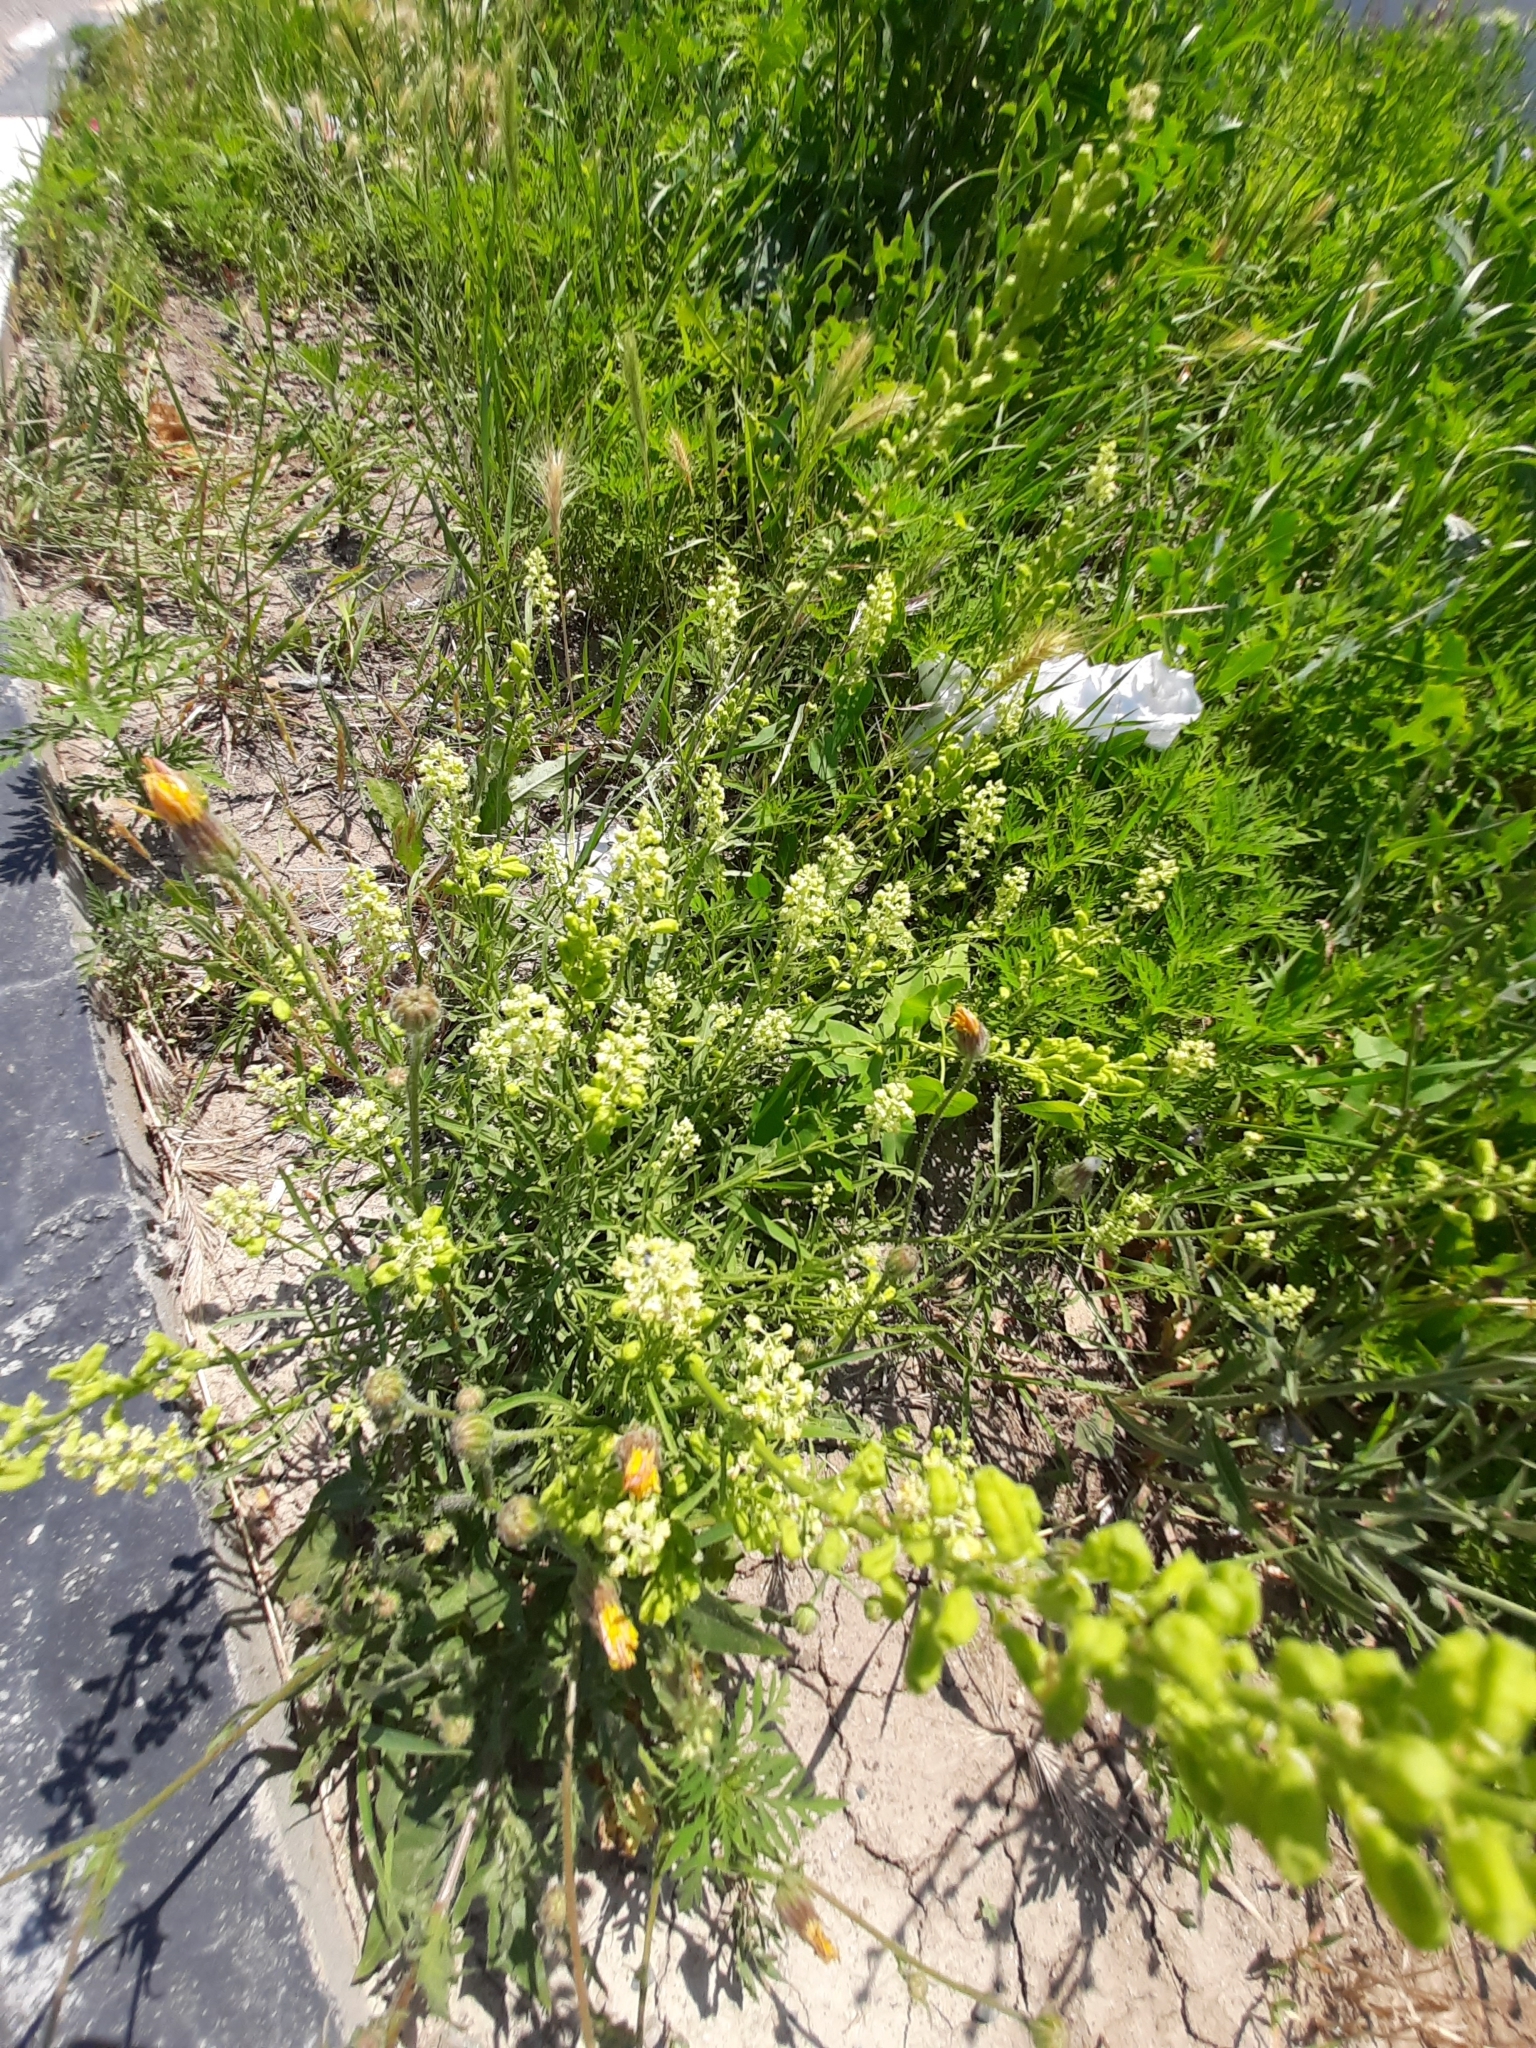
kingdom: Plantae
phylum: Tracheophyta
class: Magnoliopsida
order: Brassicales
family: Resedaceae
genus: Reseda
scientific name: Reseda lutea
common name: Wild mignonette
